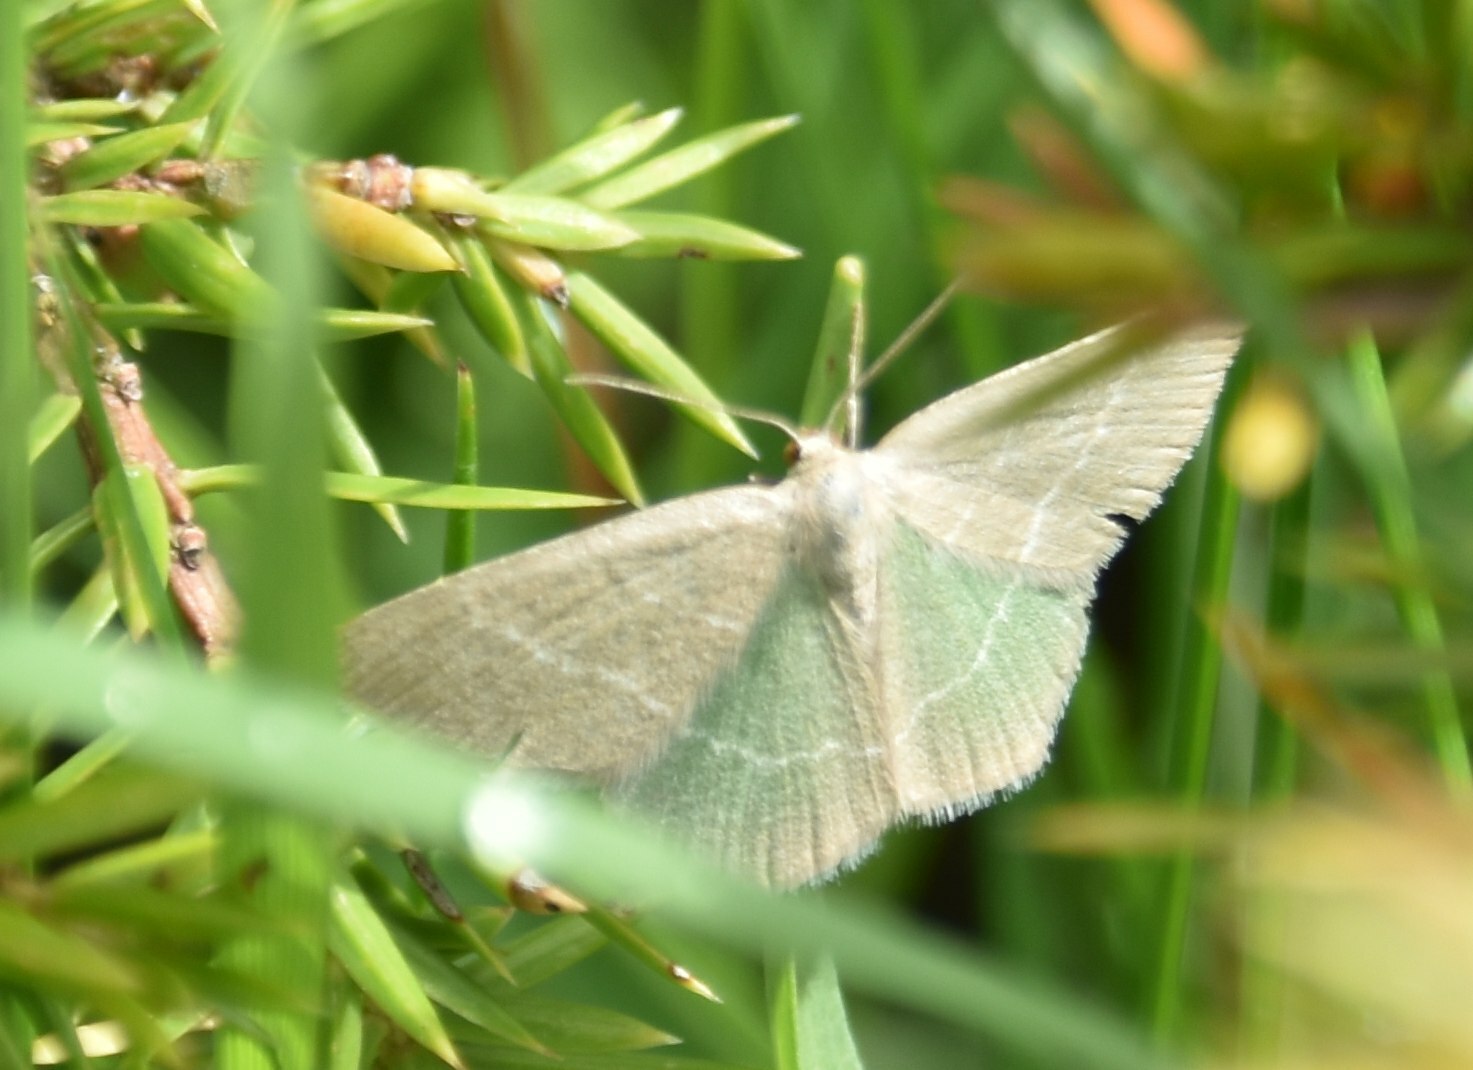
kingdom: Animalia
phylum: Arthropoda
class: Insecta
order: Lepidoptera
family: Geometridae
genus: Chlorissa
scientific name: Chlorissa
